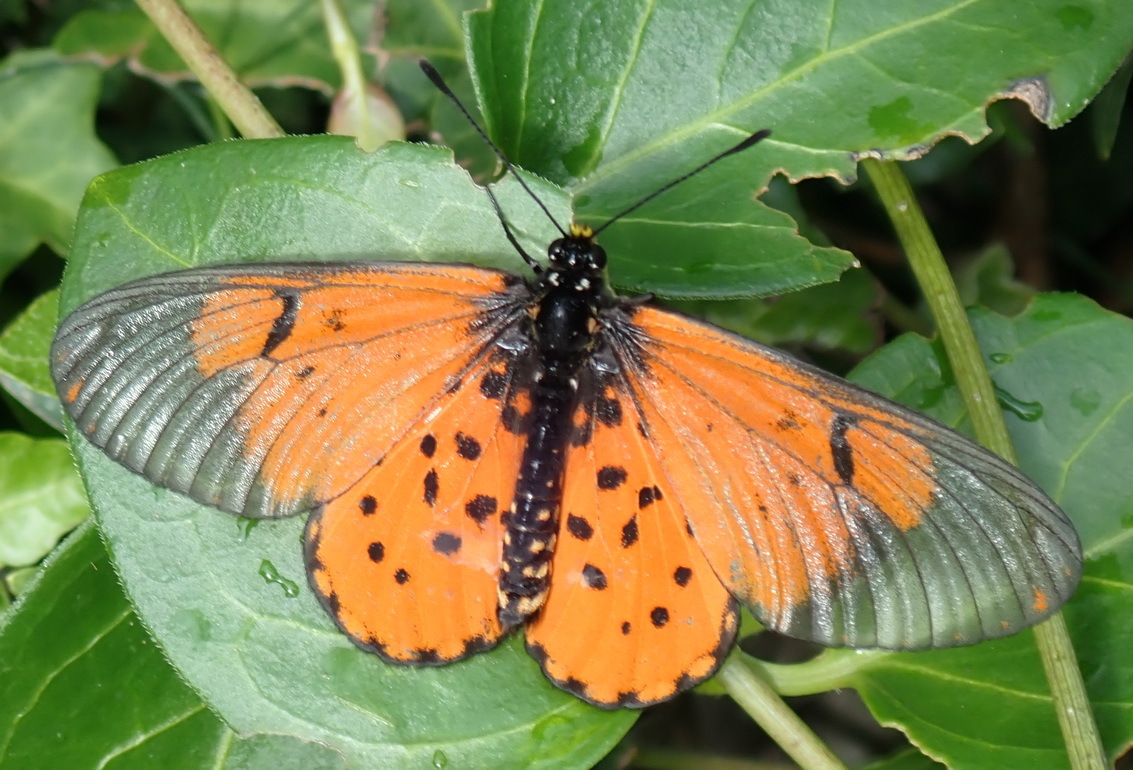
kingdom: Animalia
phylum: Arthropoda
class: Insecta
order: Lepidoptera
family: Nymphalidae
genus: Acraea
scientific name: Acraea horta
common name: Garden acraea
